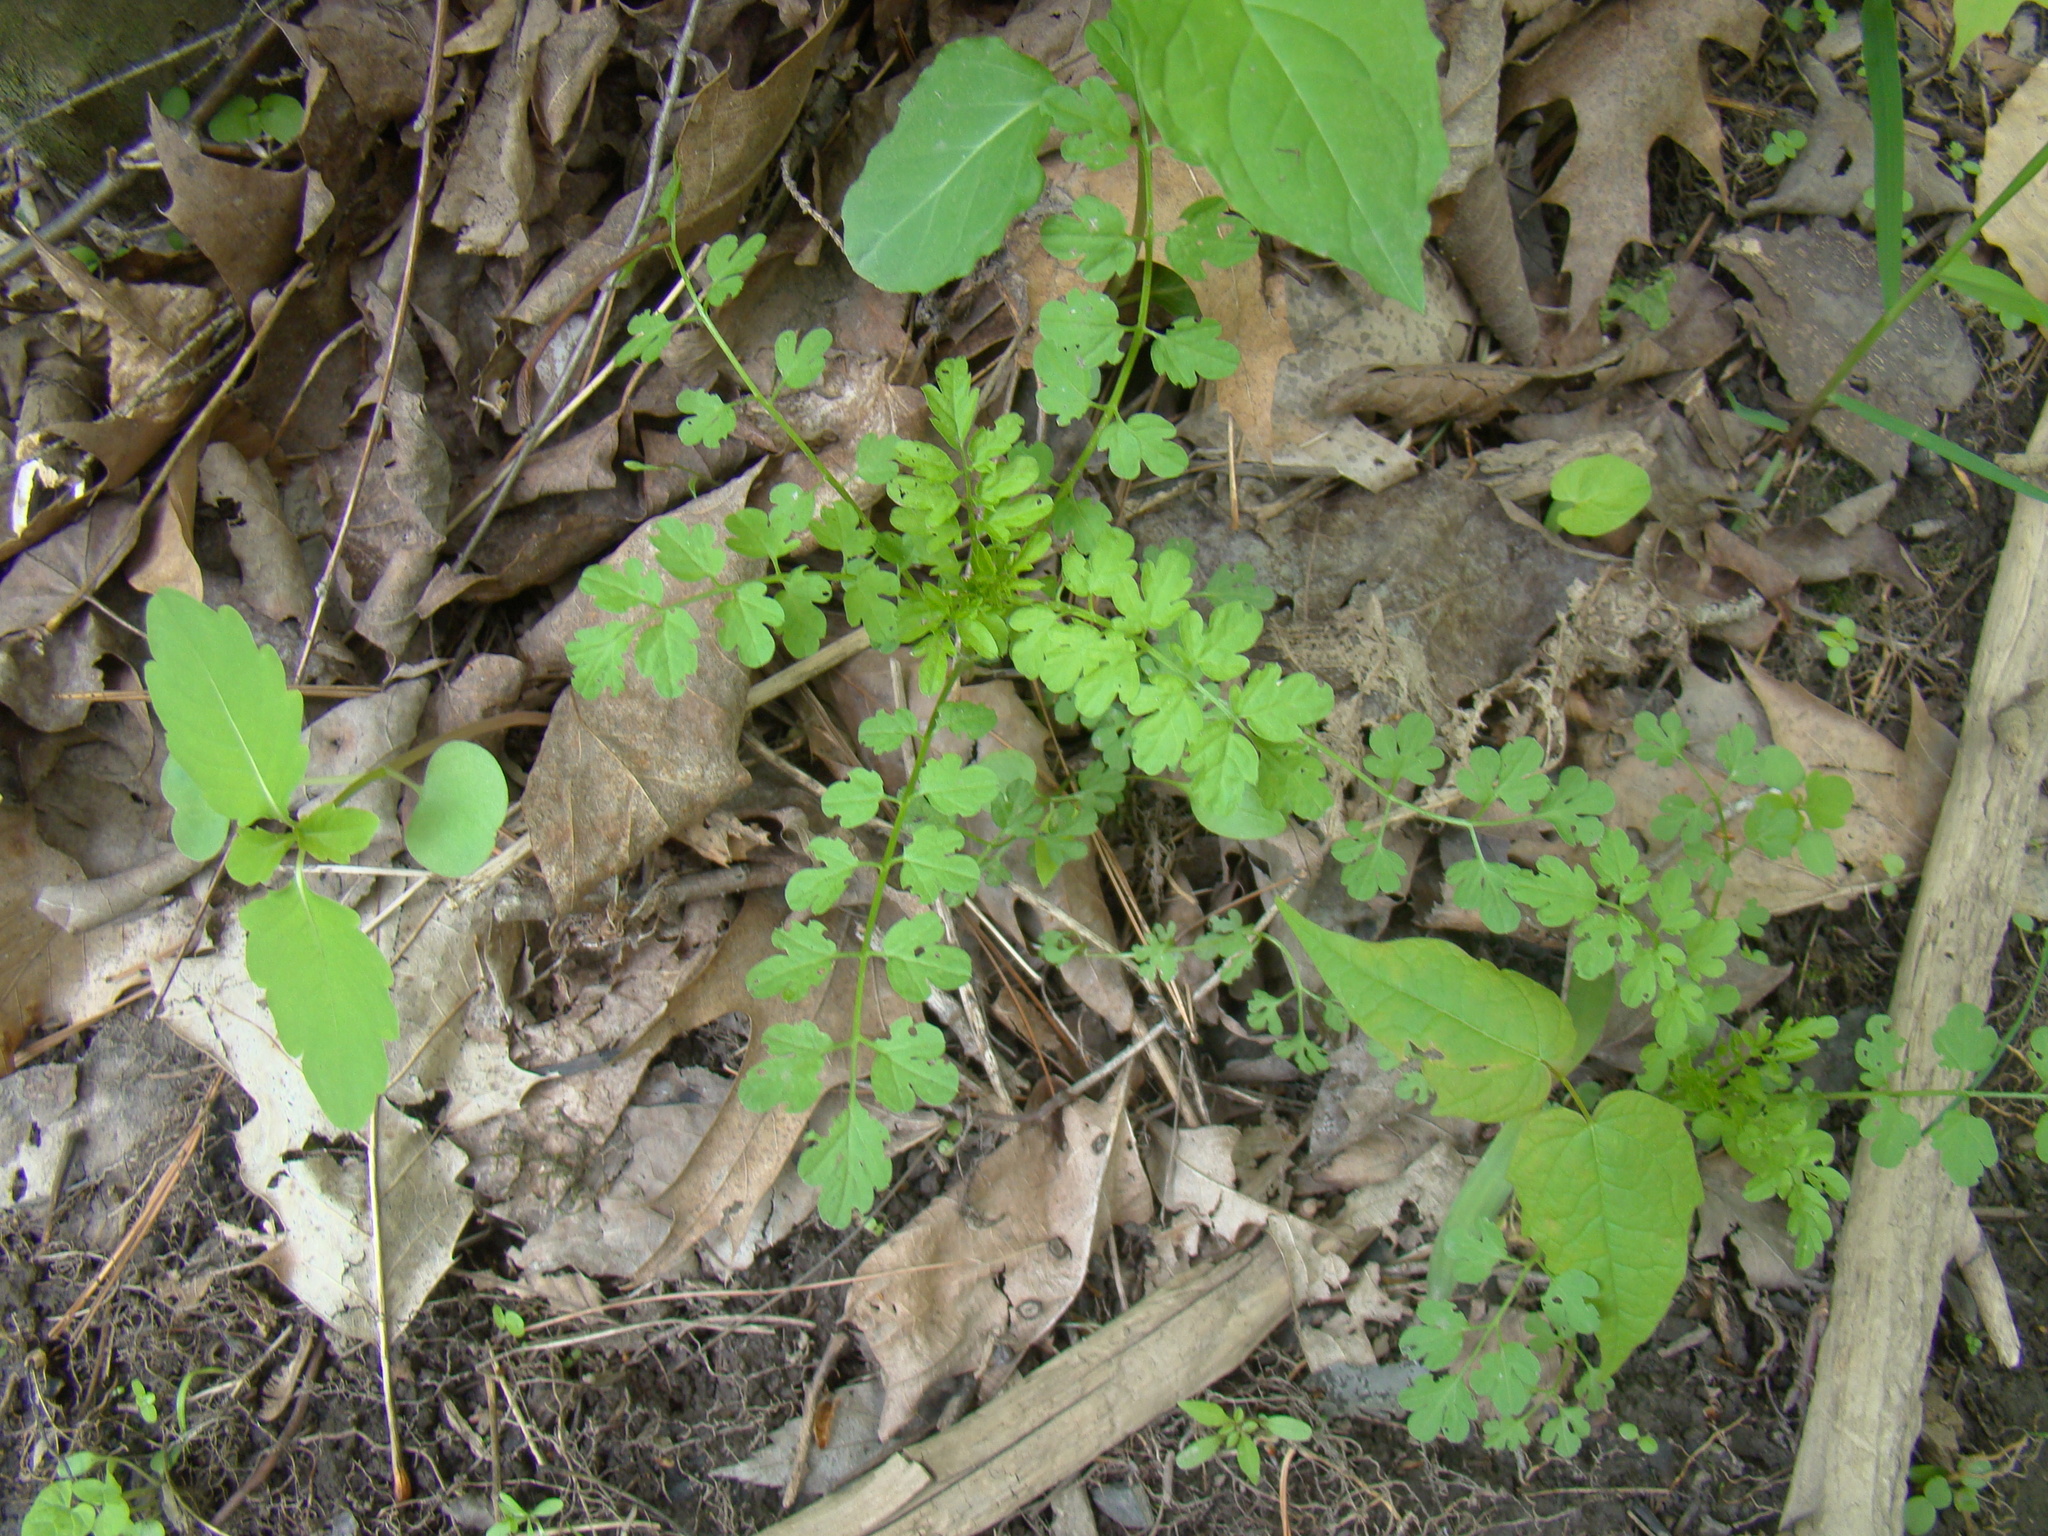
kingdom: Plantae
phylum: Tracheophyta
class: Magnoliopsida
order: Brassicales
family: Brassicaceae
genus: Cardamine
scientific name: Cardamine impatiens
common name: Narrow-leaved bitter-cress
